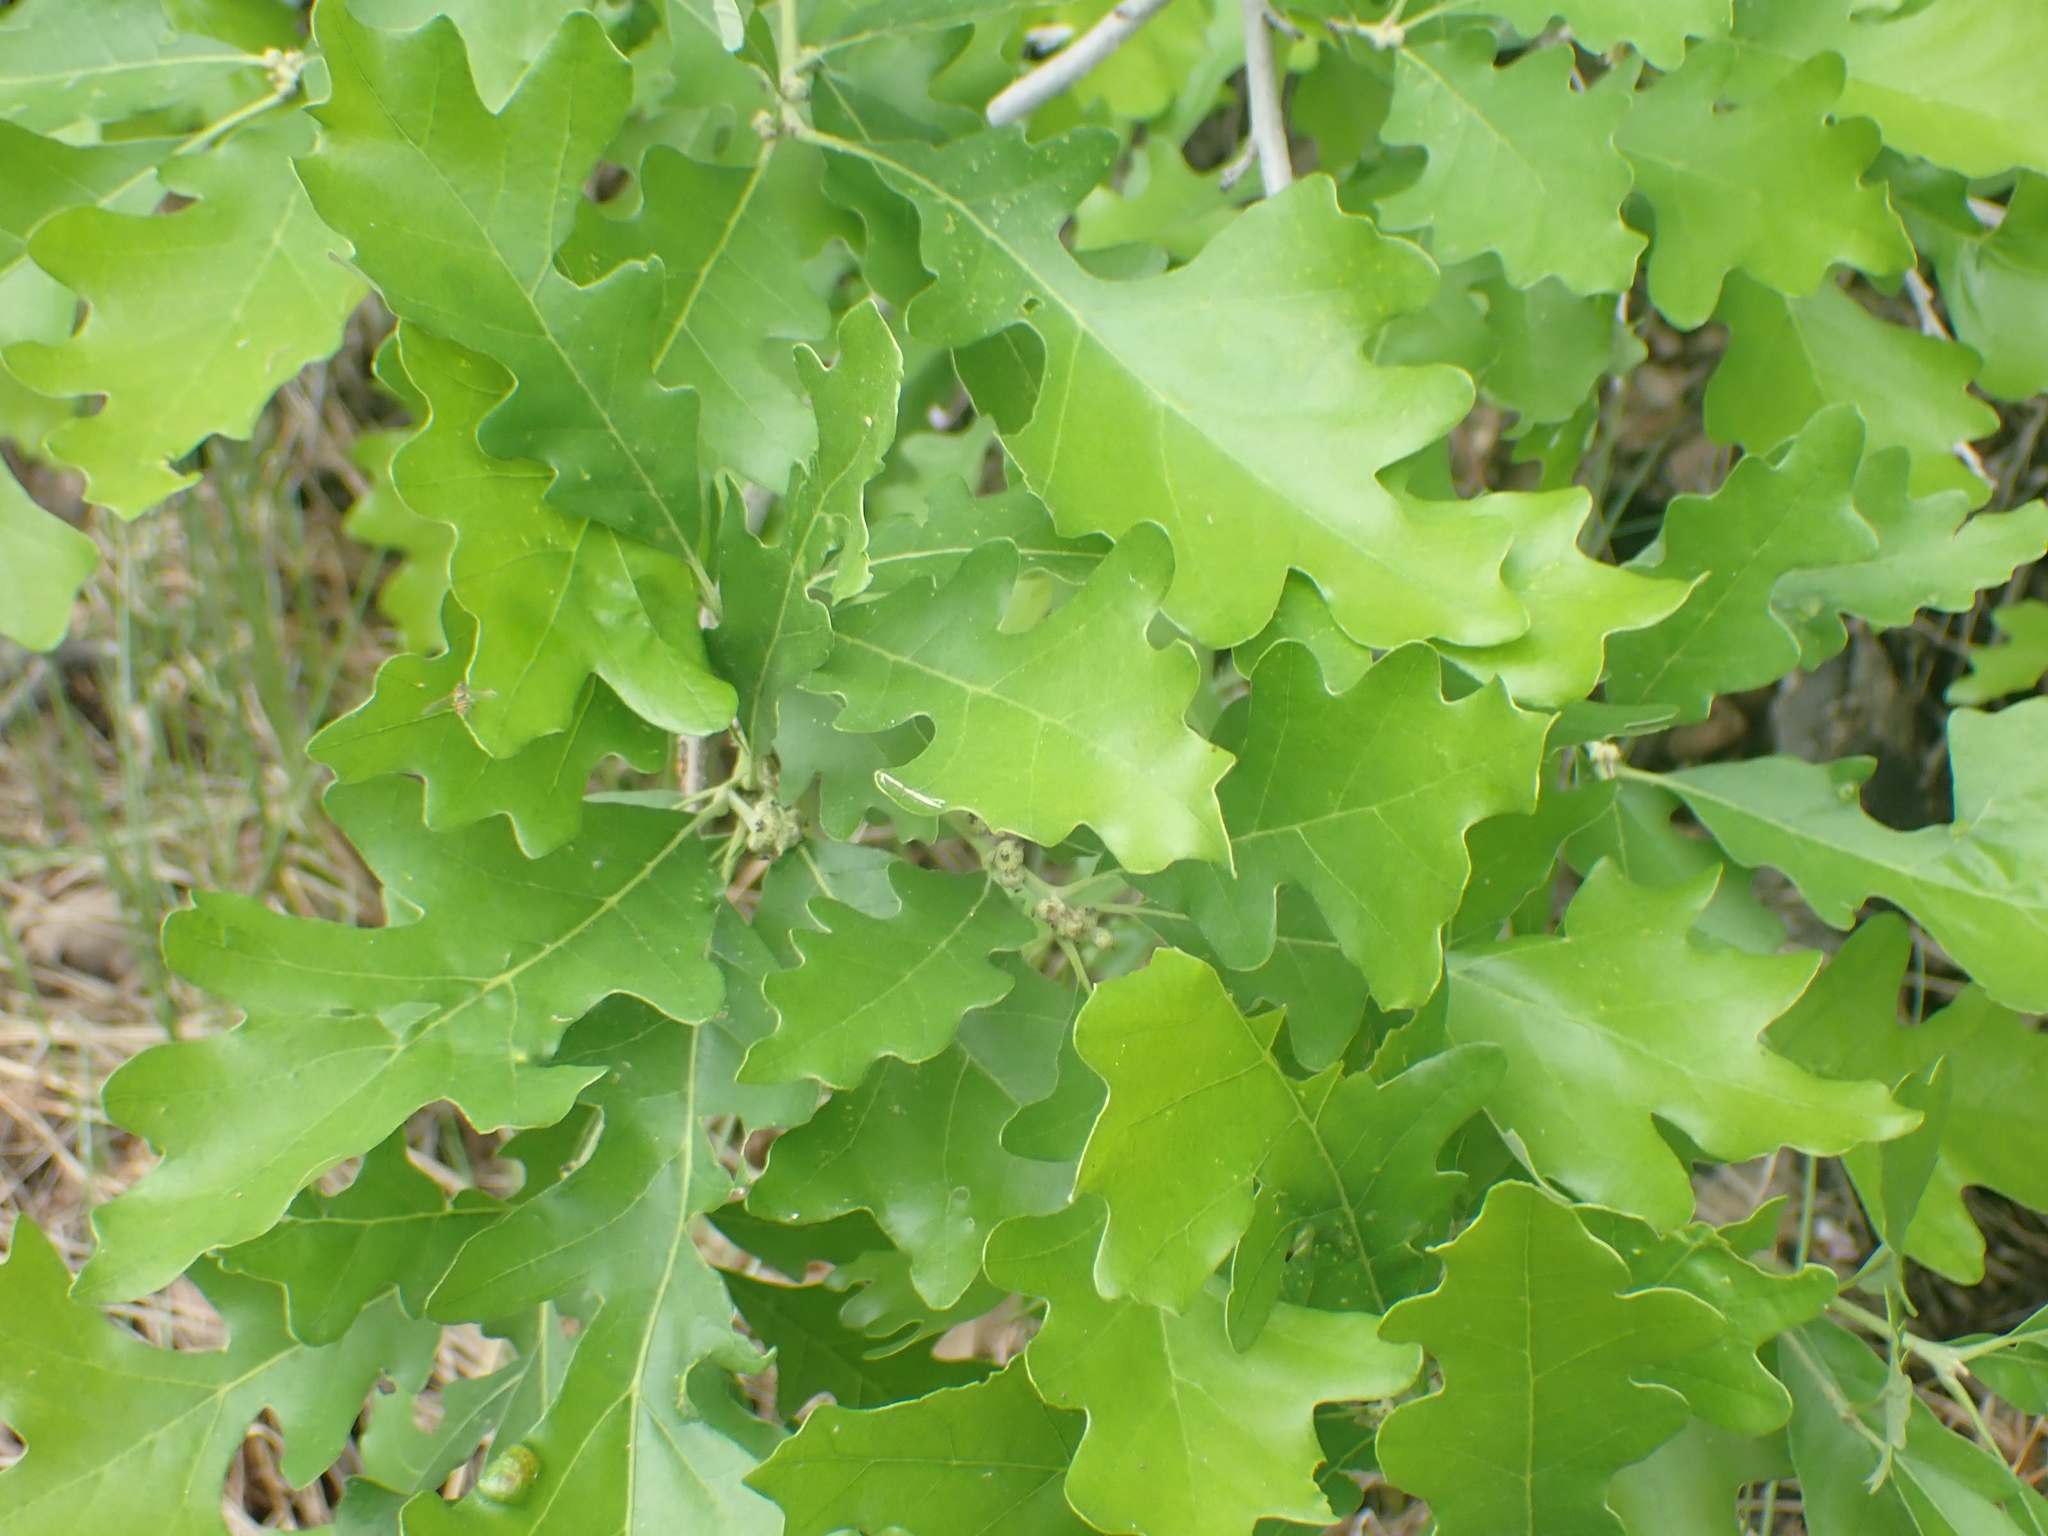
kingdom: Plantae
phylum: Tracheophyta
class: Magnoliopsida
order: Fagales
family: Fagaceae
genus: Quercus
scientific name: Quercus macrocarpa
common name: Bur oak
